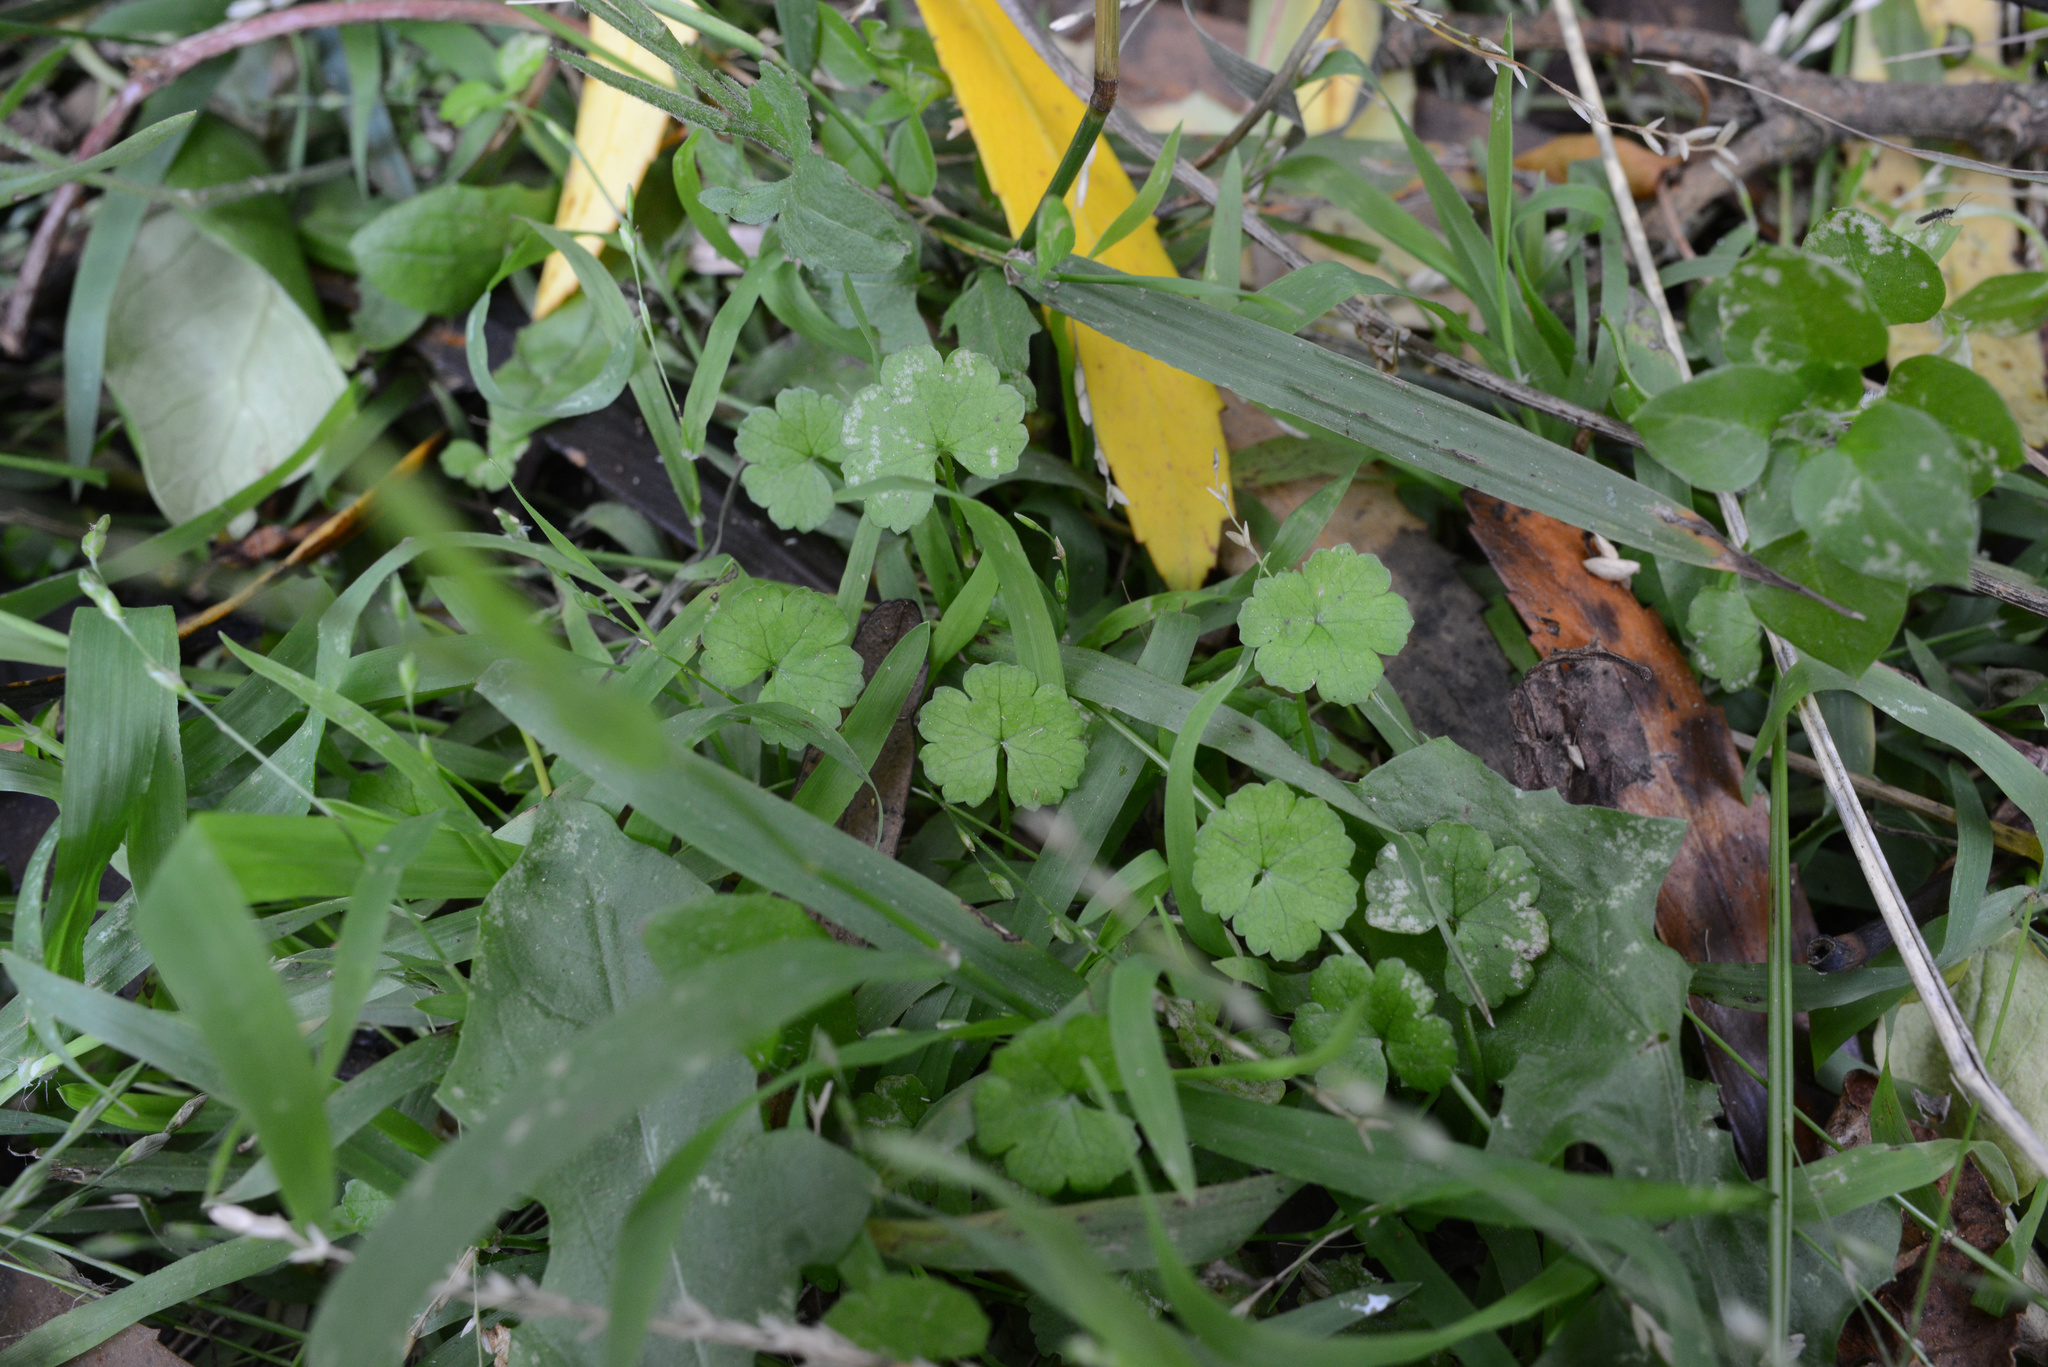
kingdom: Plantae
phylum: Tracheophyta
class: Magnoliopsida
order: Apiales
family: Araliaceae
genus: Hydrocotyle
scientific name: Hydrocotyle heteromeria
